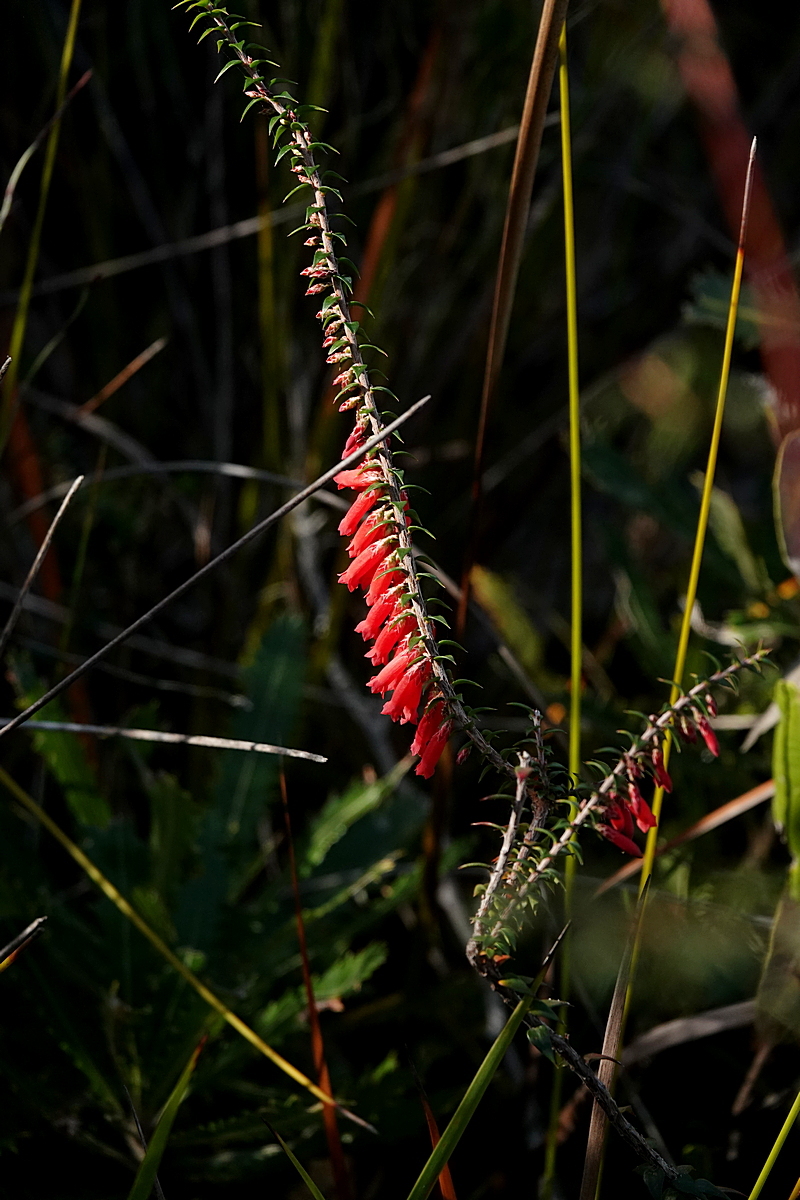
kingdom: Plantae
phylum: Tracheophyta
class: Magnoliopsida
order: Ericales
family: Ericaceae
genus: Epacris
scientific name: Epacris impressa
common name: Common-heath
